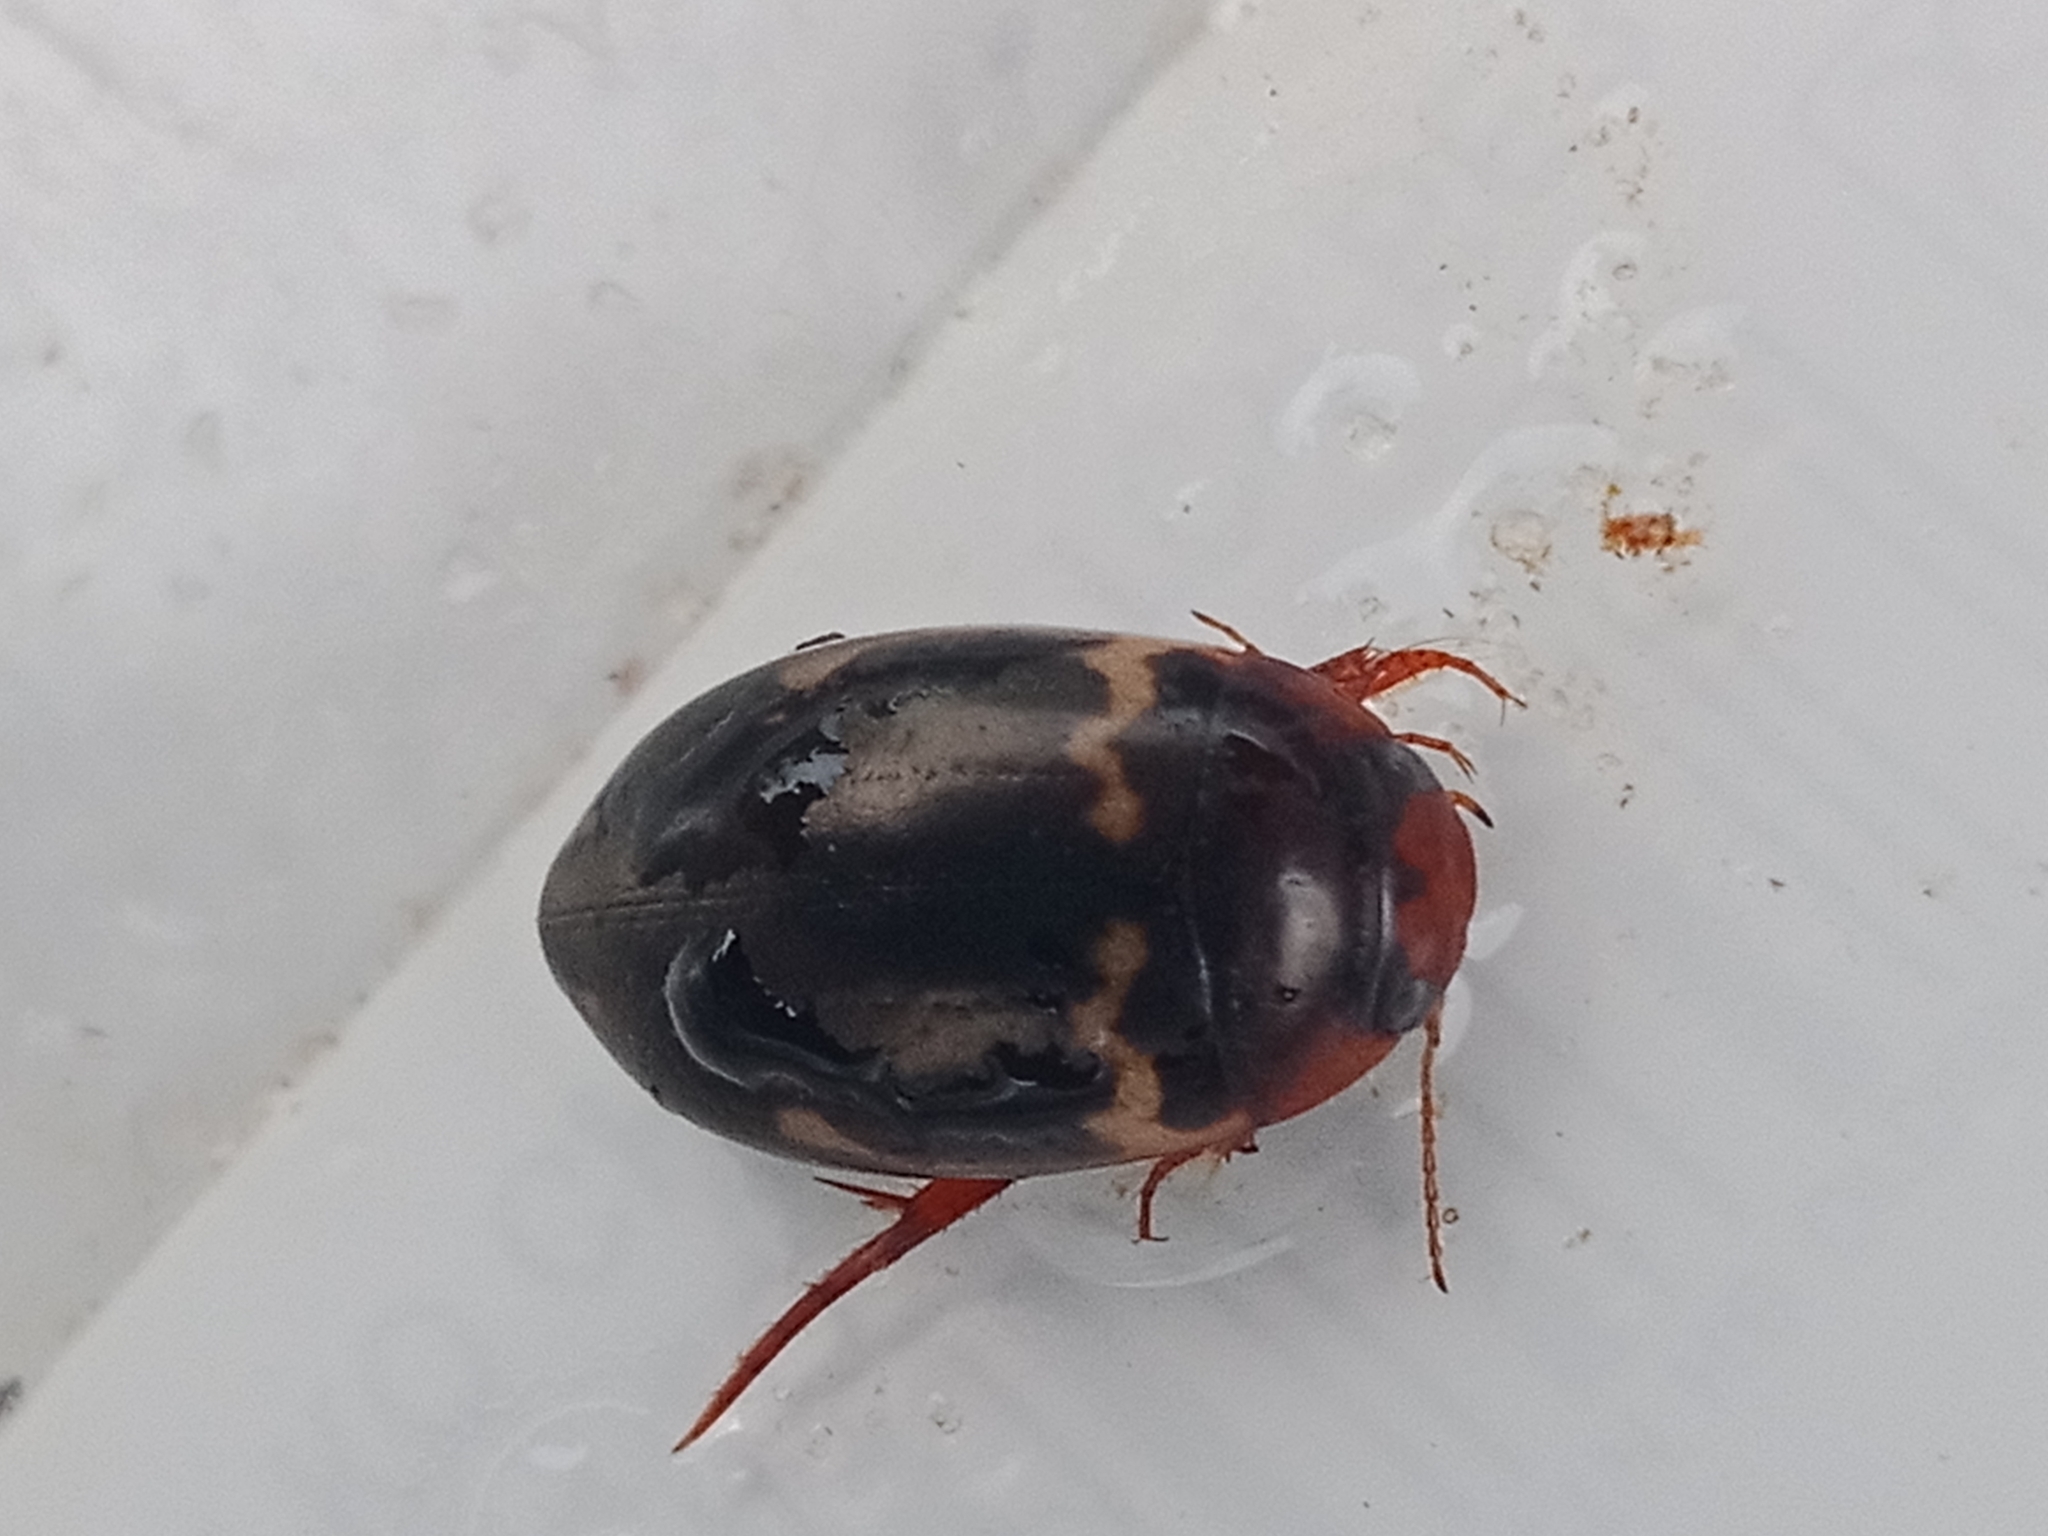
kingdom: Animalia
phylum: Arthropoda
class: Insecta
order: Coleoptera
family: Dytiscidae
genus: Agabus
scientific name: Agabus undulatus
